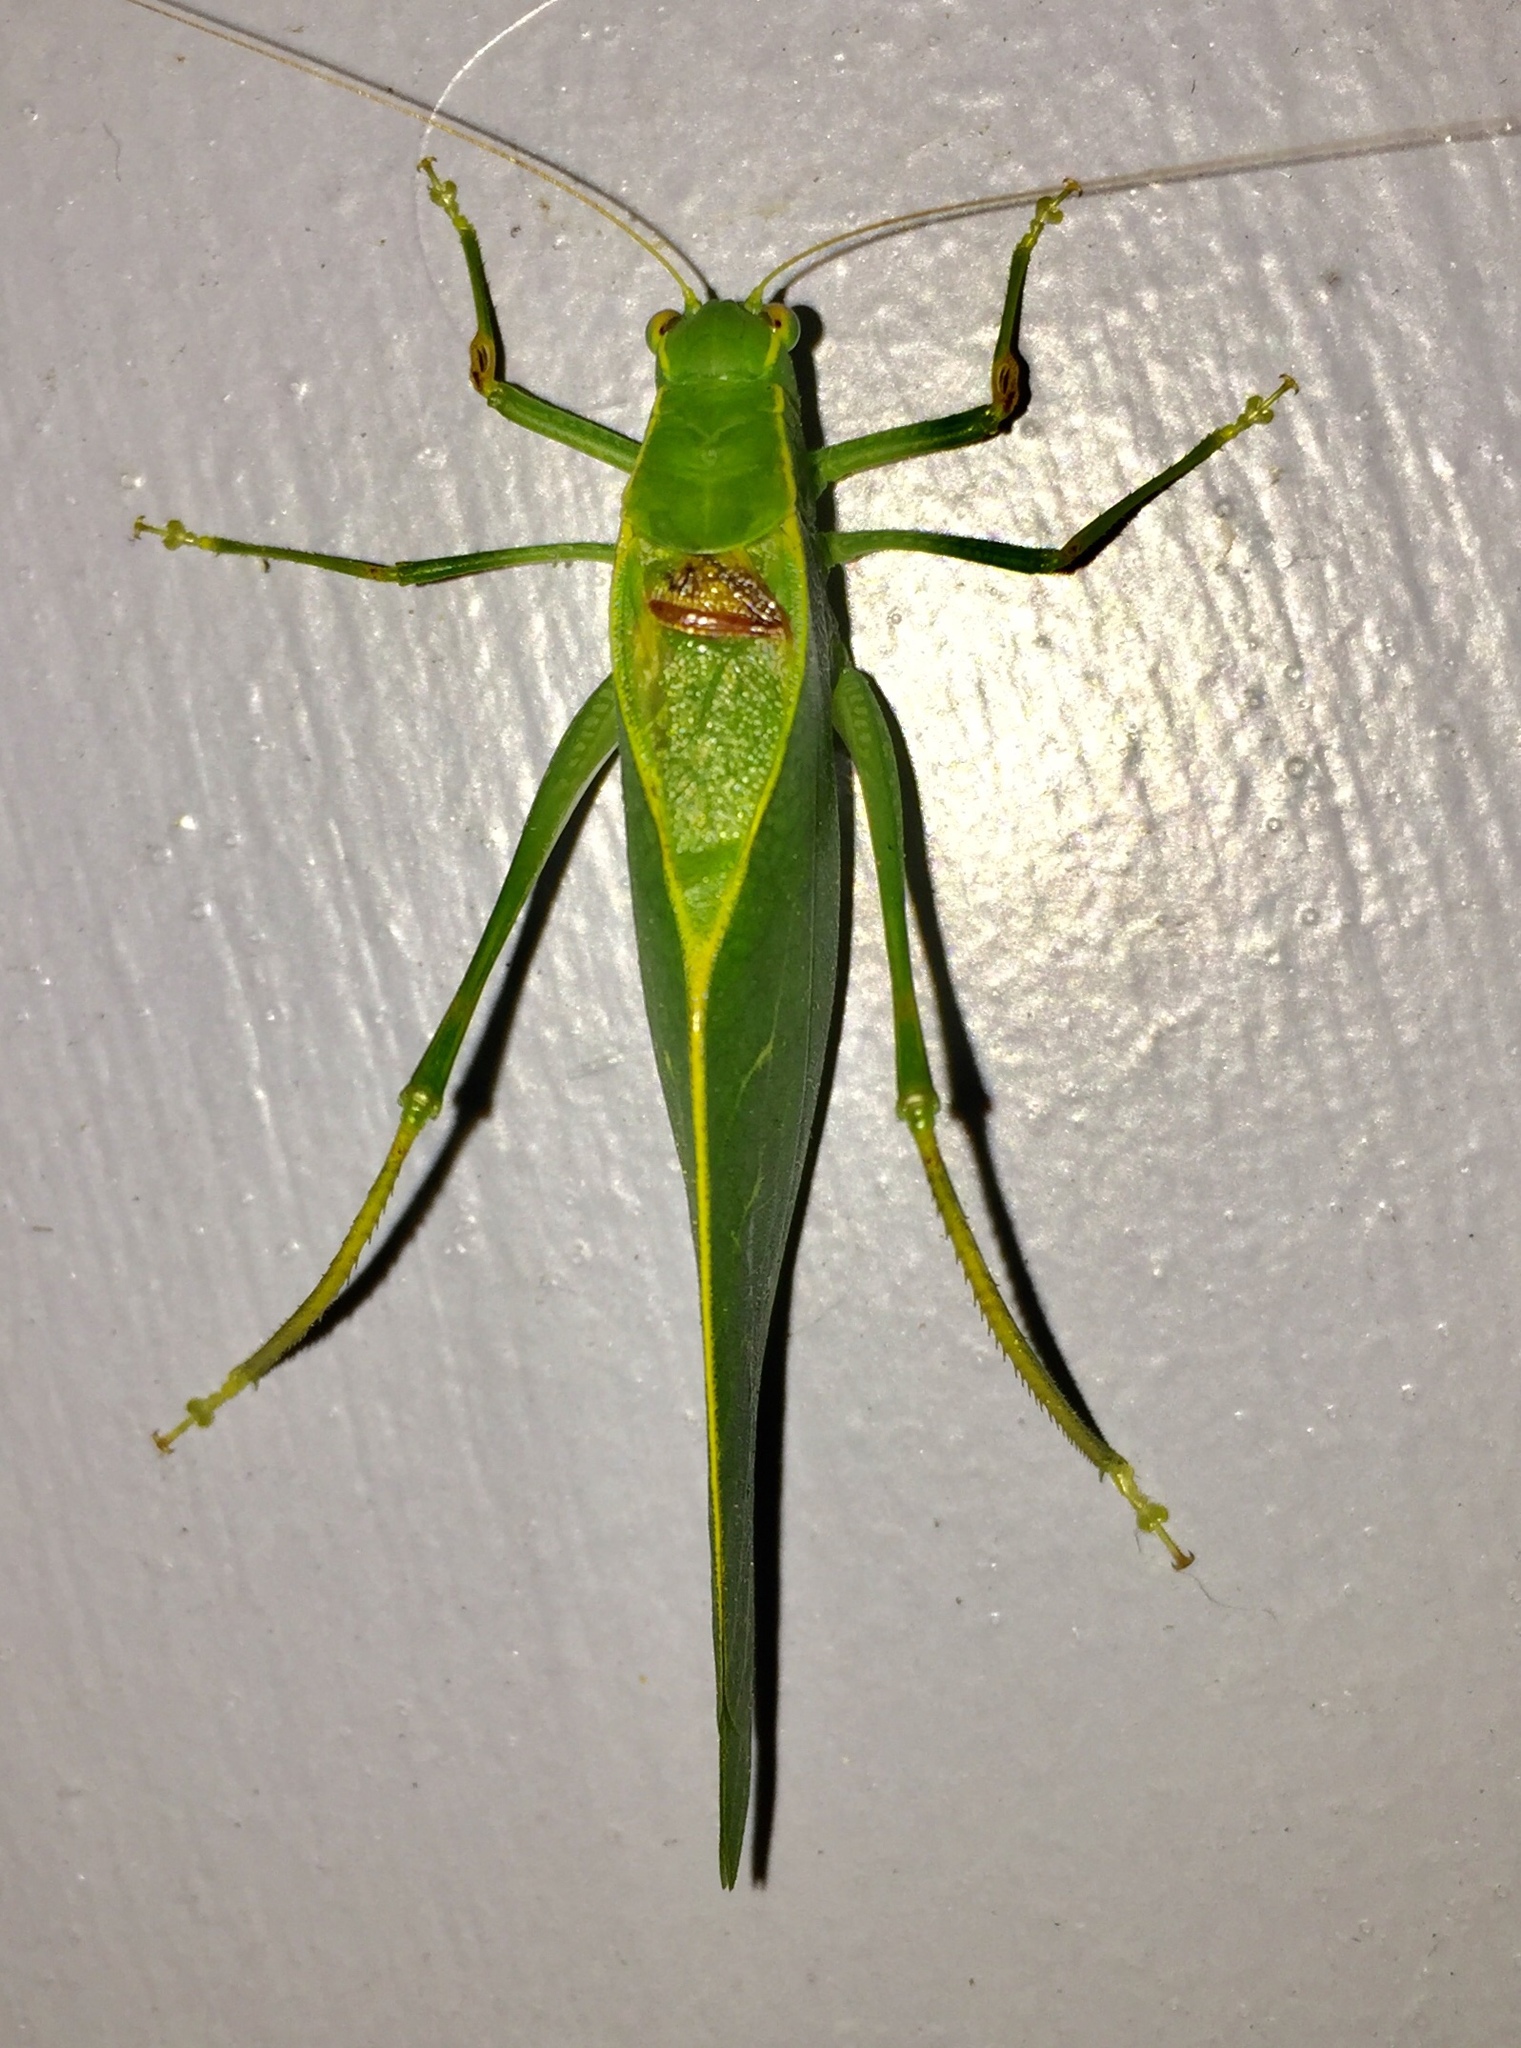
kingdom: Animalia
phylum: Arthropoda
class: Insecta
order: Orthoptera
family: Tettigoniidae
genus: Microcentrum
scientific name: Microcentrum retinerve
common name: Angular-winged katydid
